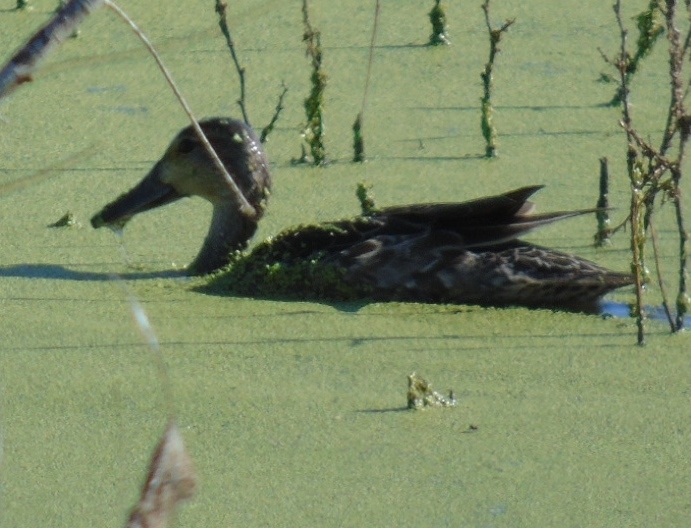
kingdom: Animalia
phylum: Chordata
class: Aves
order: Anseriformes
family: Anatidae
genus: Spatula
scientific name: Spatula cyanoptera
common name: Cinnamon teal
